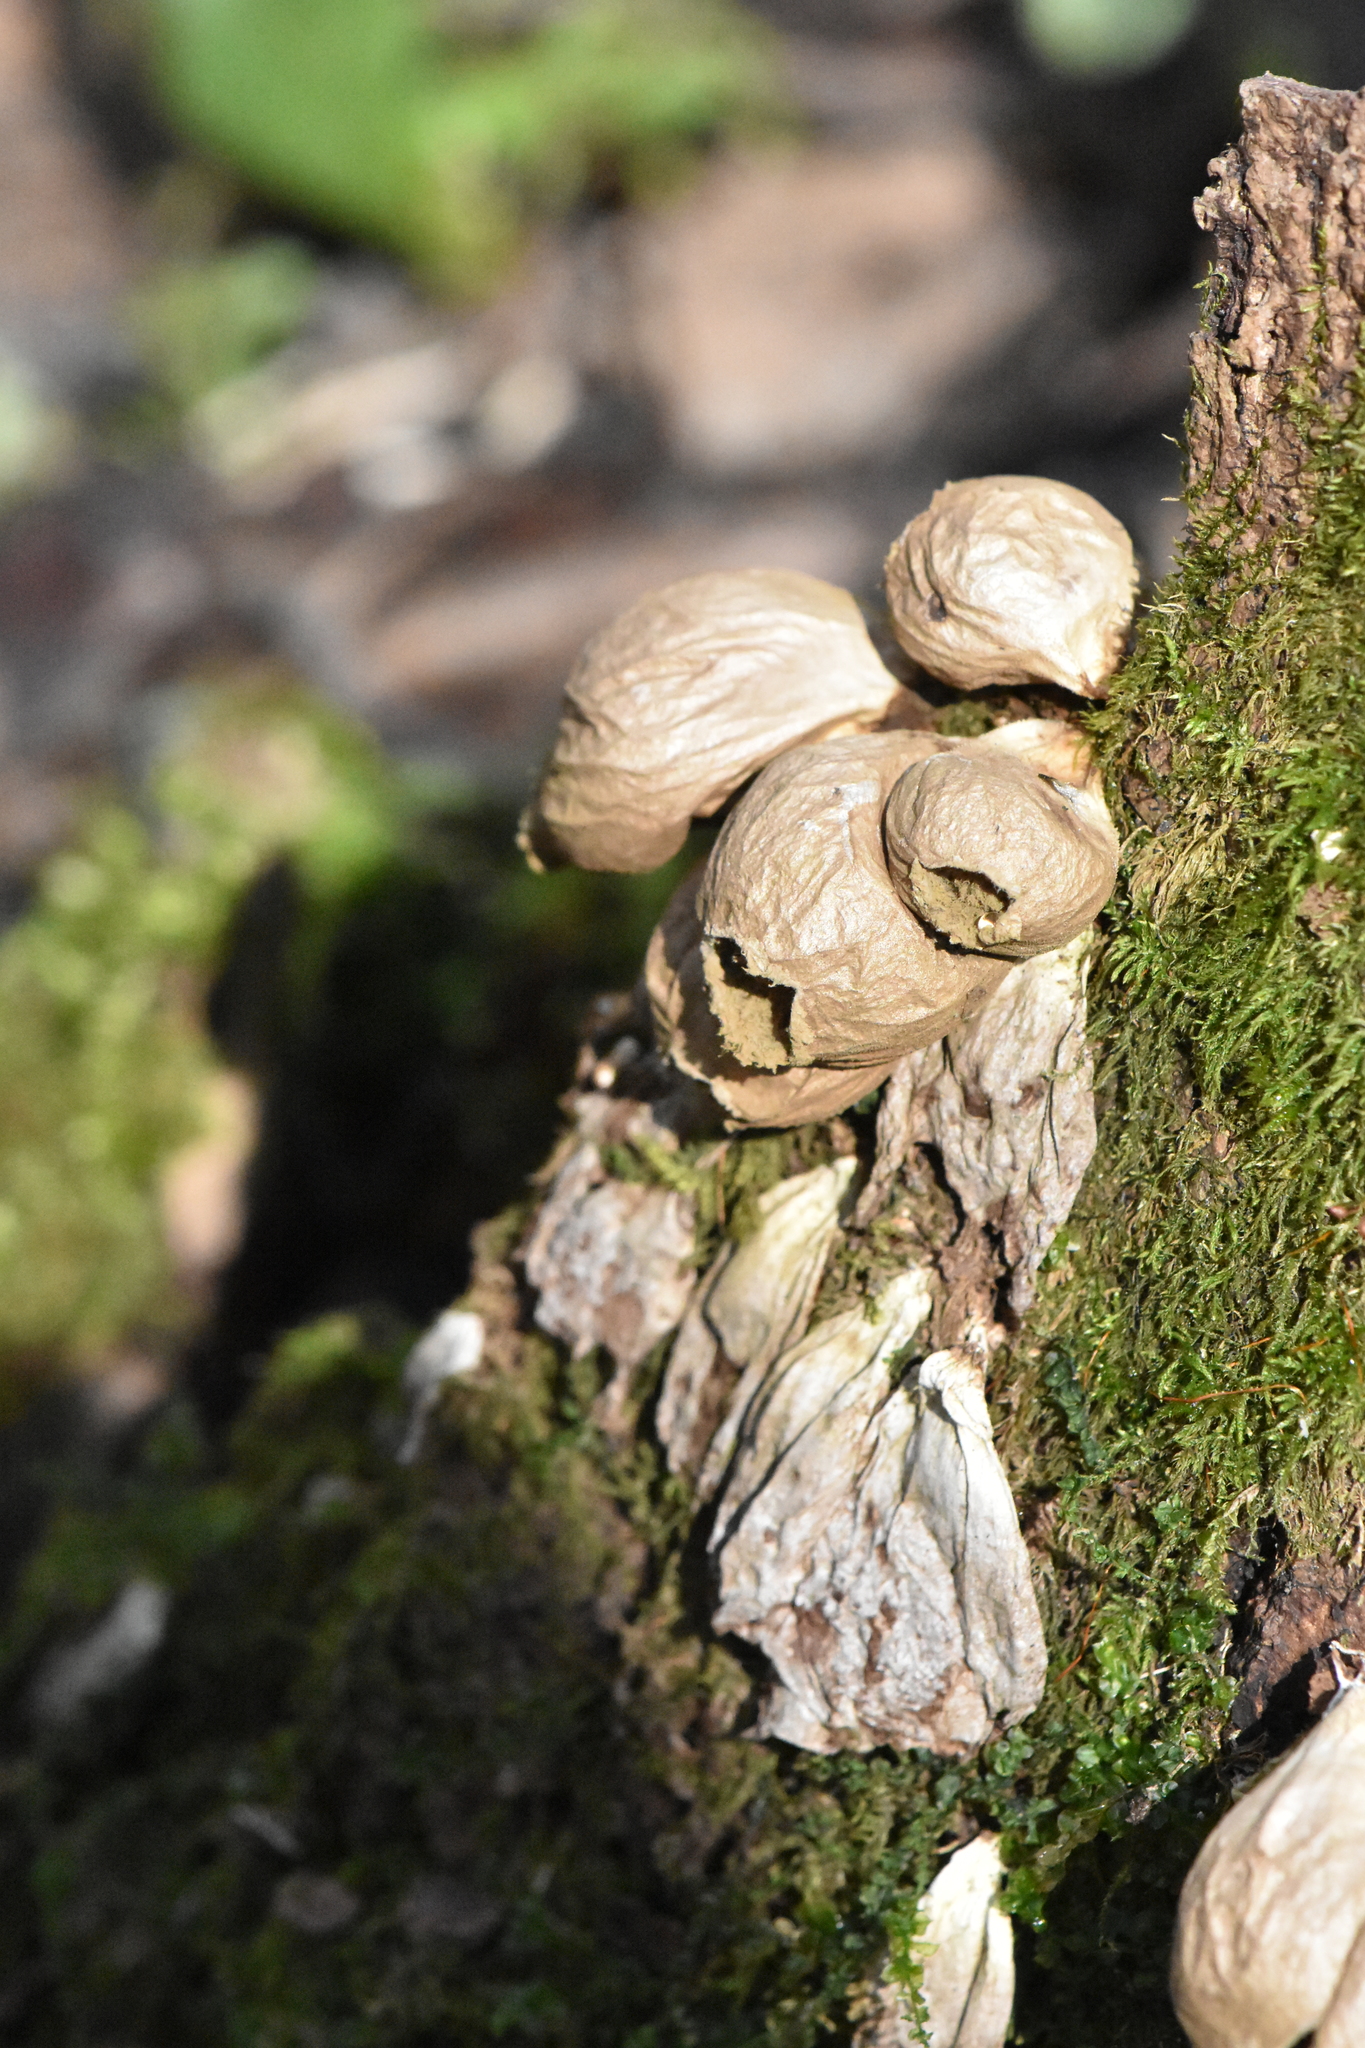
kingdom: Fungi
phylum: Basidiomycota
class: Agaricomycetes
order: Agaricales
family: Lycoperdaceae
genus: Apioperdon
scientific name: Apioperdon pyriforme
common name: Pear-shaped puffball
